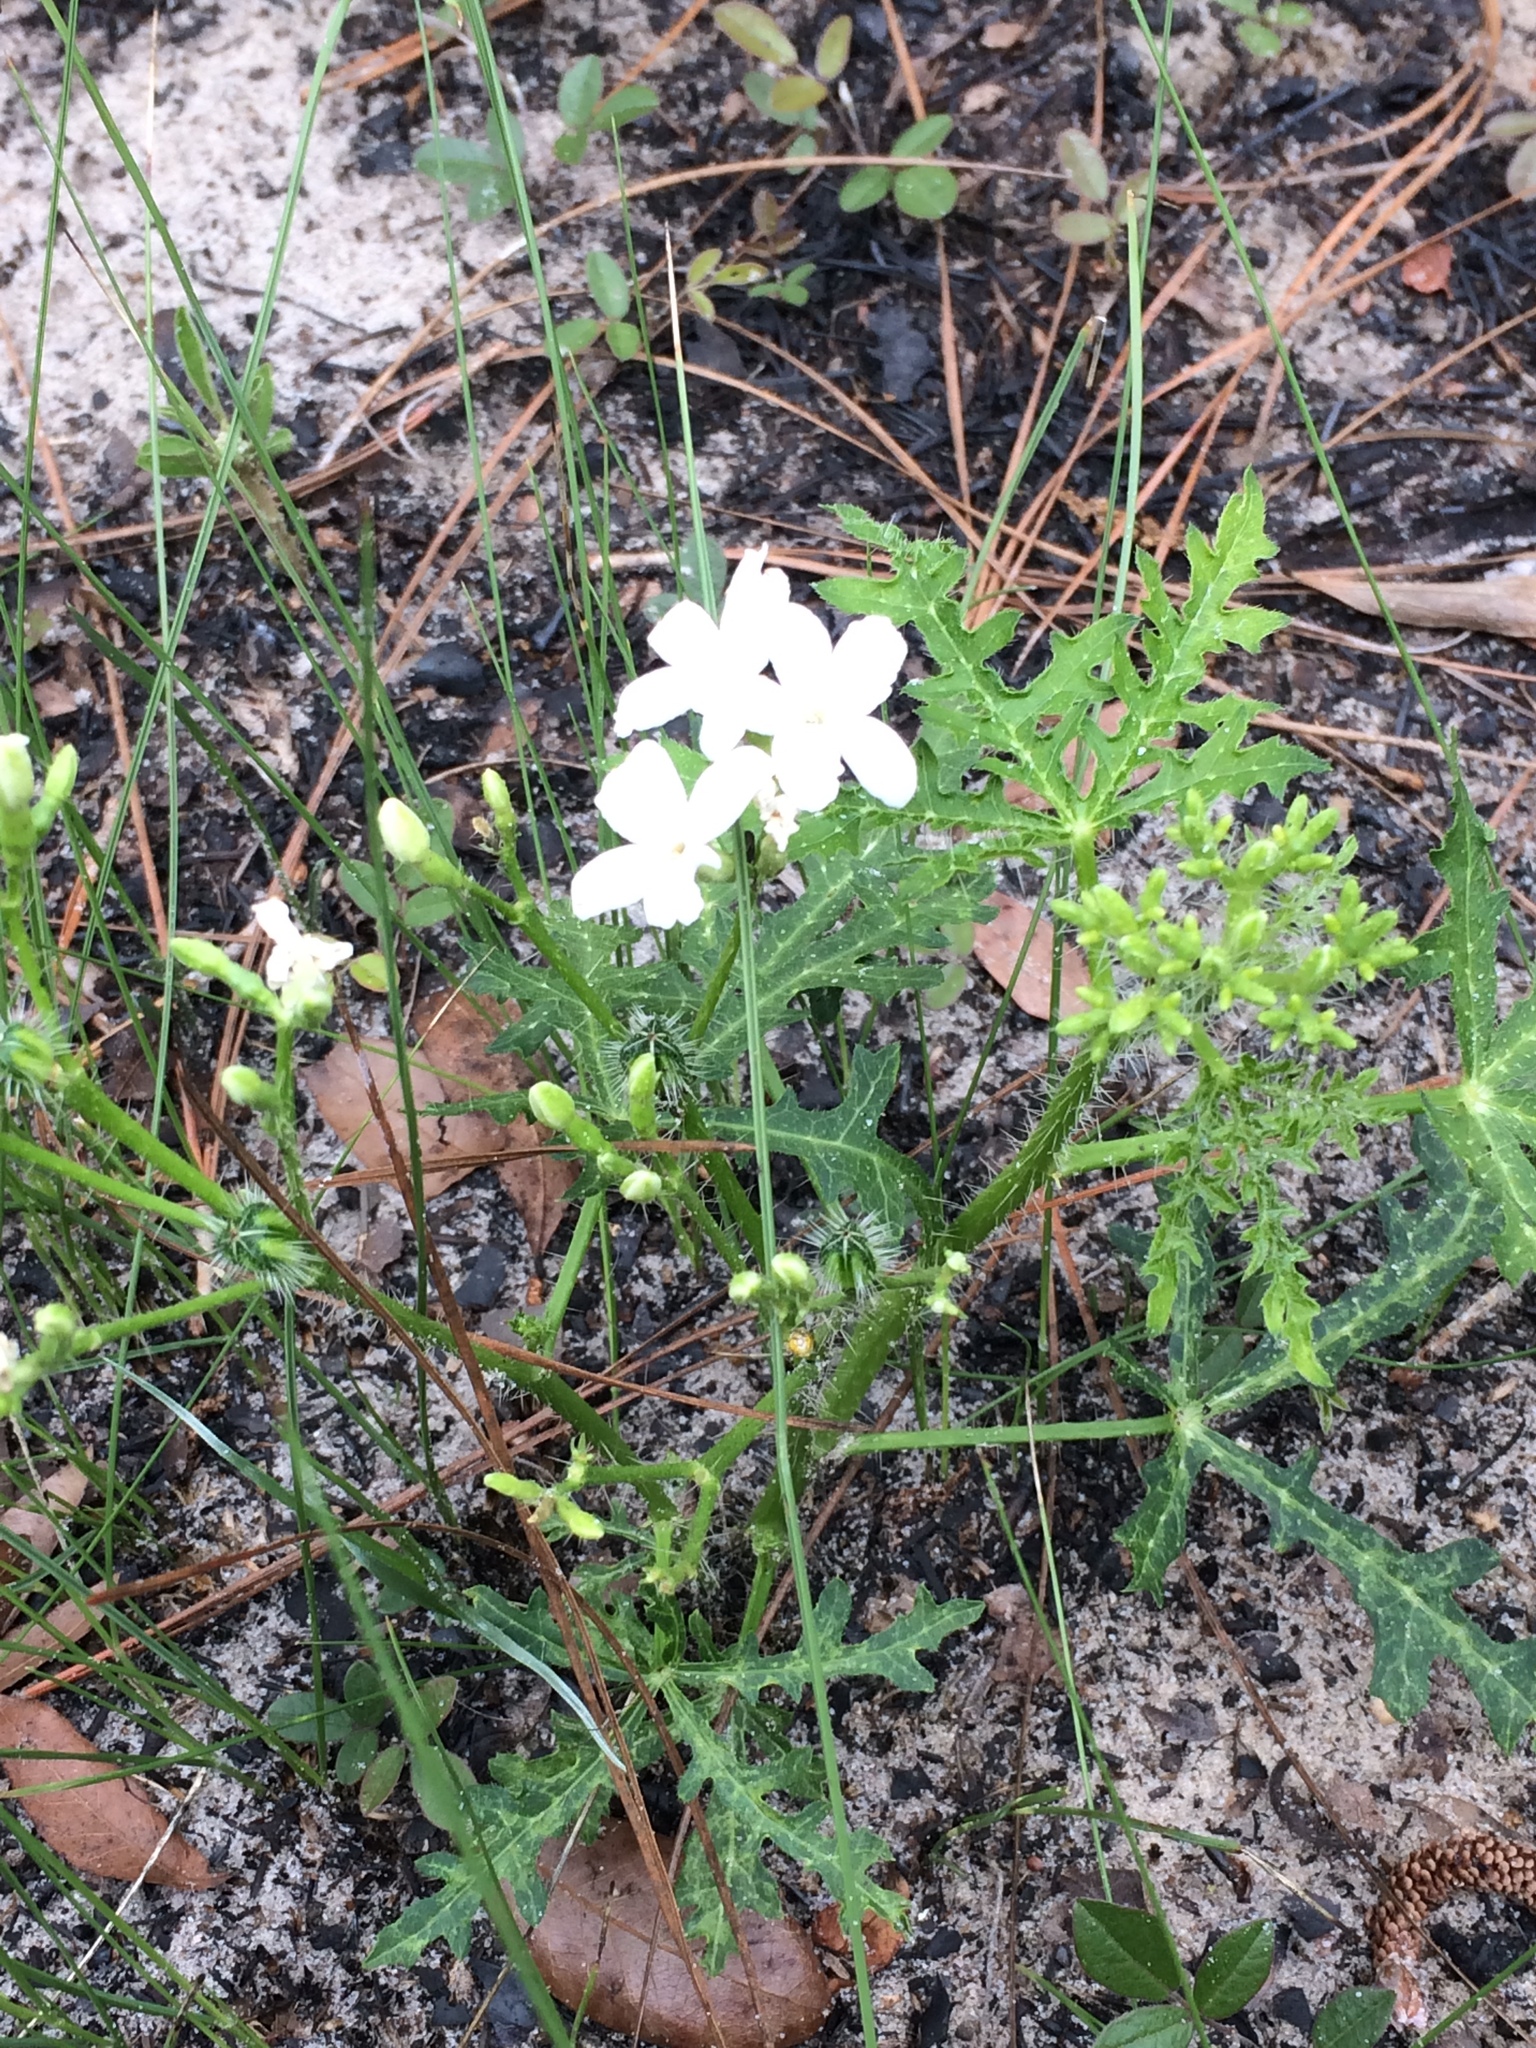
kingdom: Plantae
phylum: Tracheophyta
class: Magnoliopsida
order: Malpighiales
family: Euphorbiaceae
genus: Cnidoscolus
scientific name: Cnidoscolus stimulosus
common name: Bull-nettle
